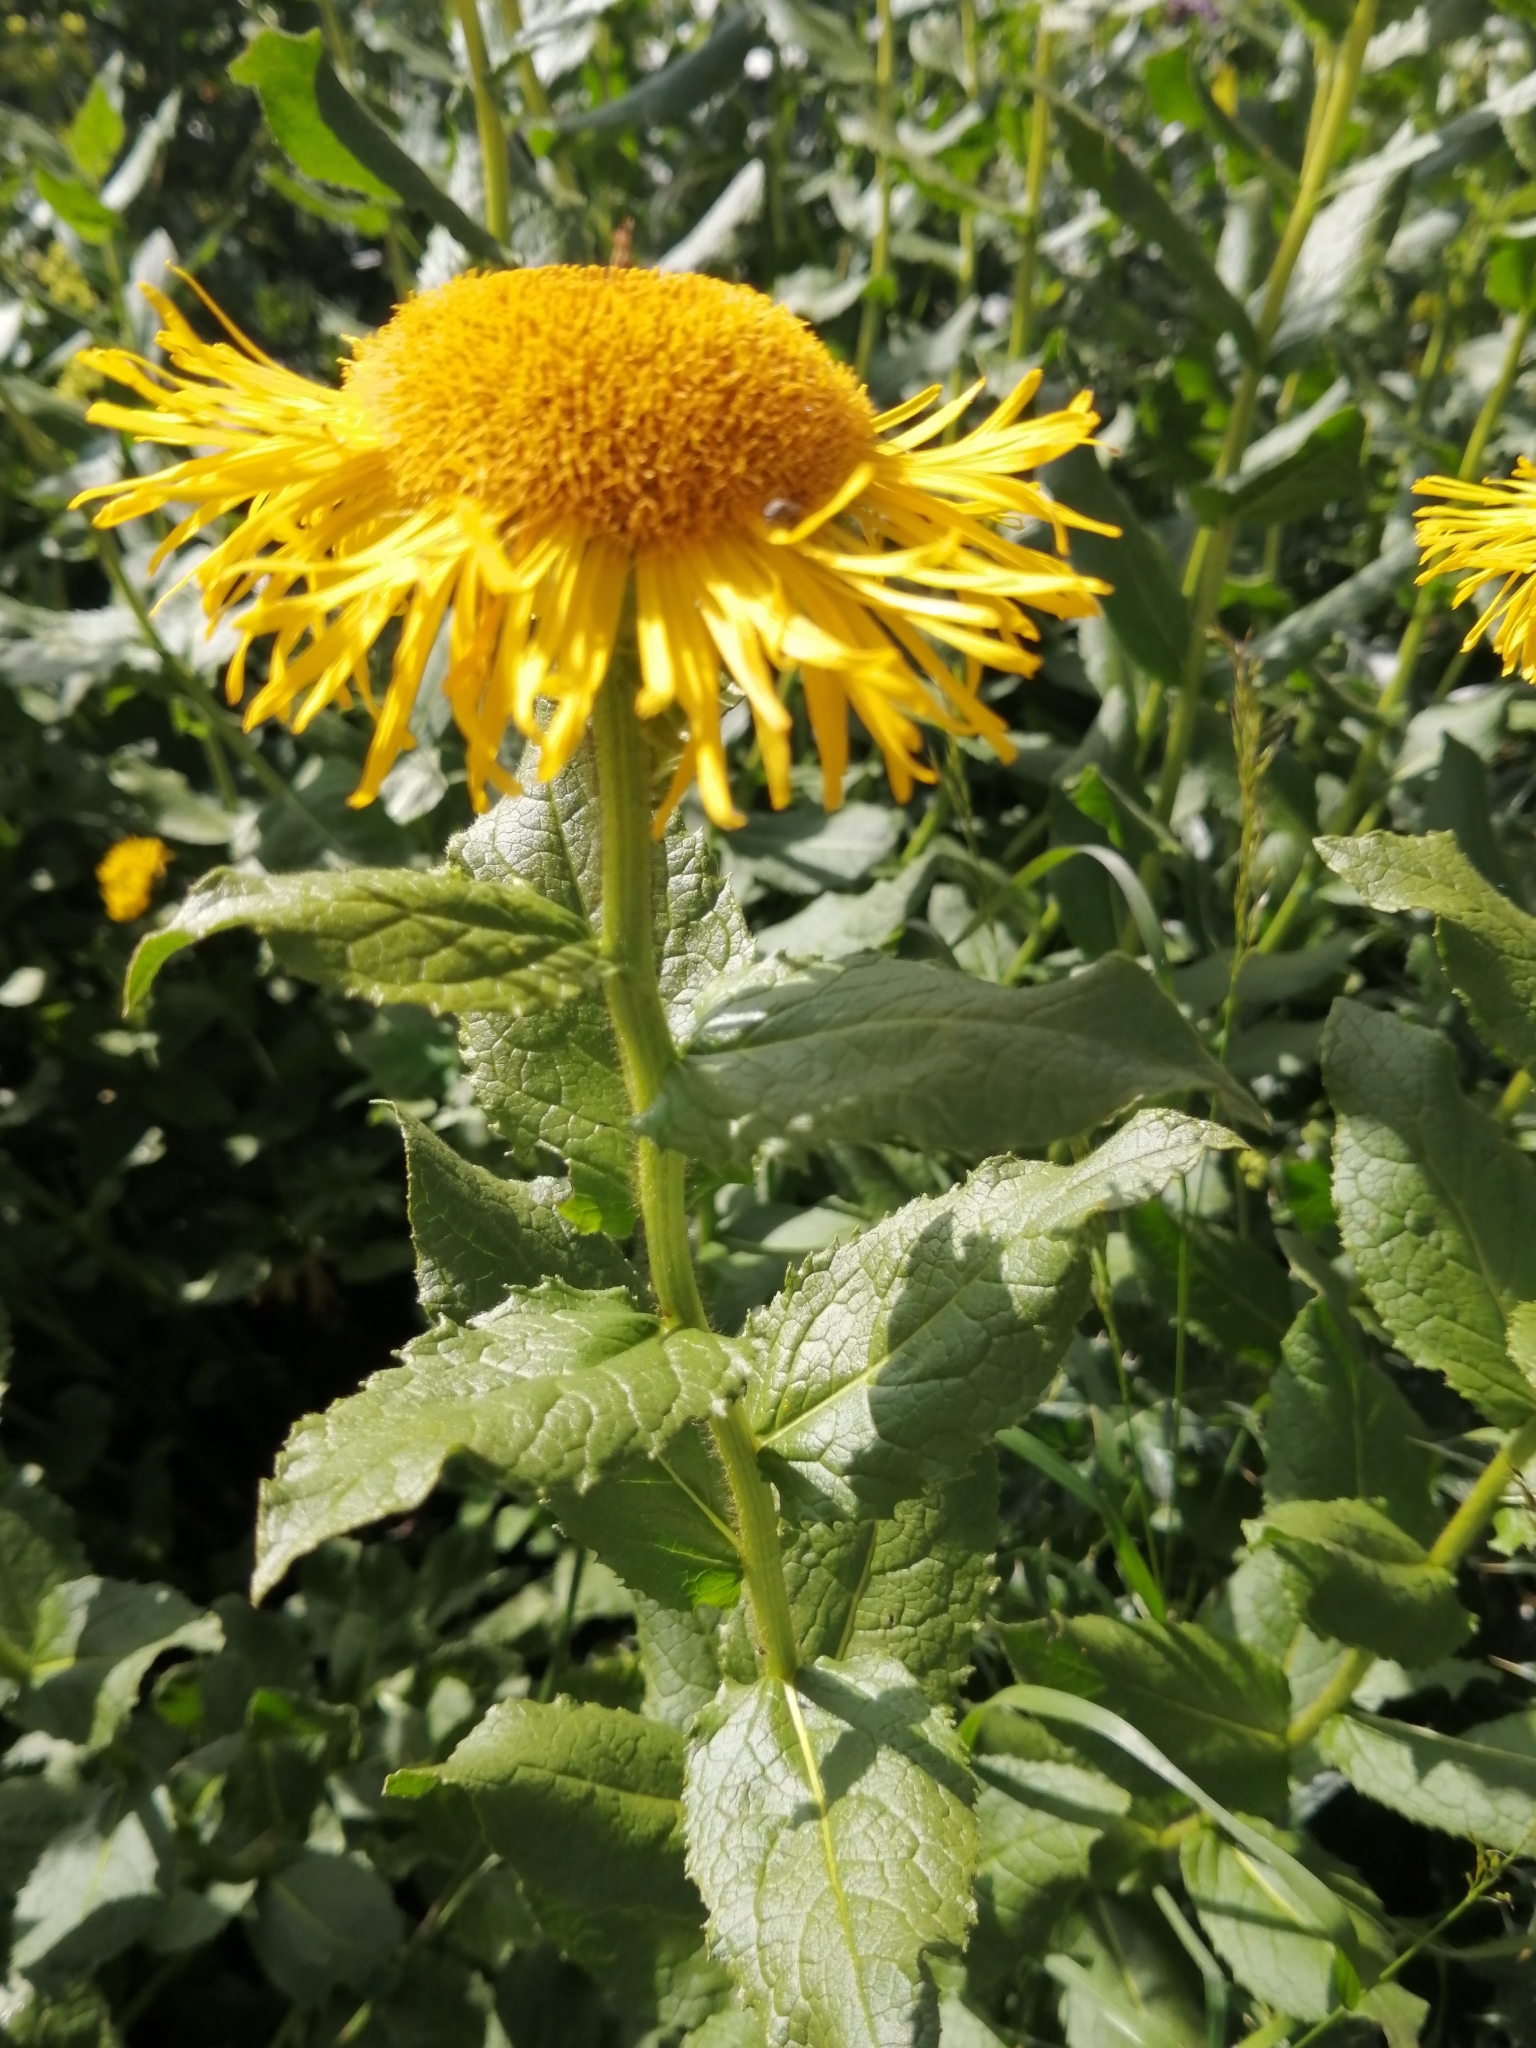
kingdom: Plantae
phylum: Tracheophyta
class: Magnoliopsida
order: Asterales
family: Asteraceae
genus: Pentanema
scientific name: Pentanema orientale
